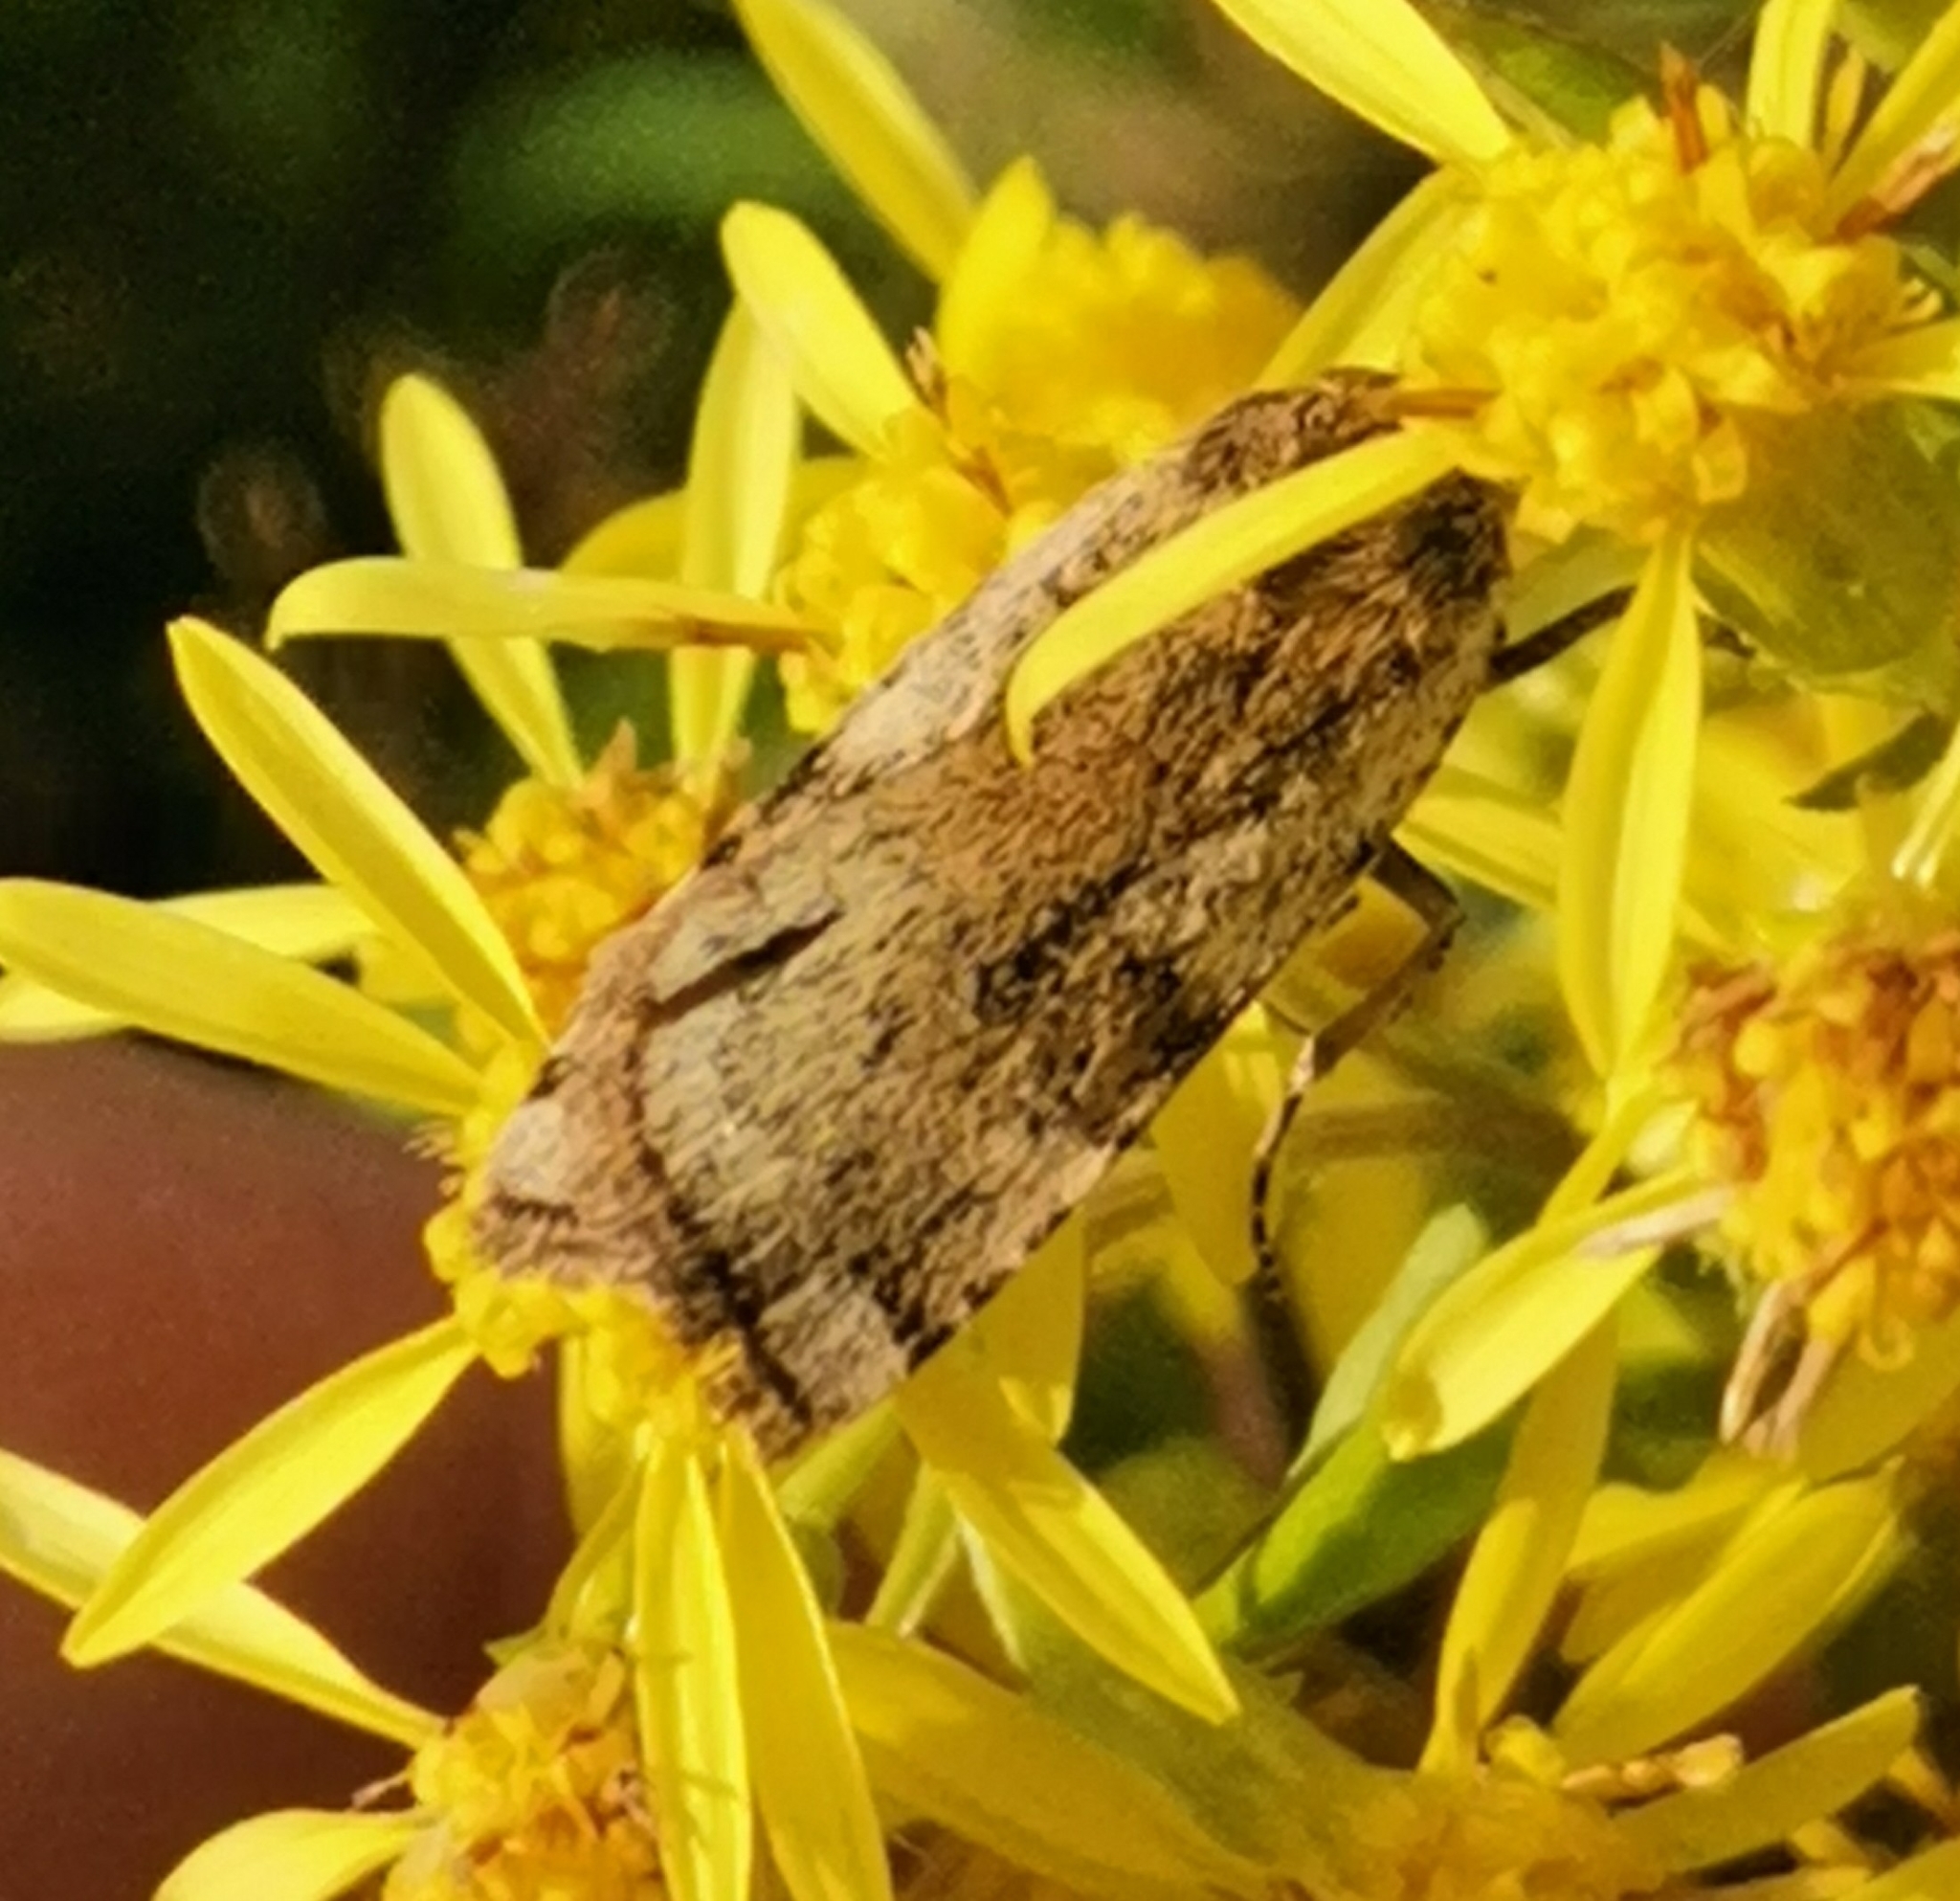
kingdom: Animalia
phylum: Arthropoda
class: Insecta
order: Lepidoptera
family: Noctuidae
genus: Cryptocala
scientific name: Cryptocala chardinyi
